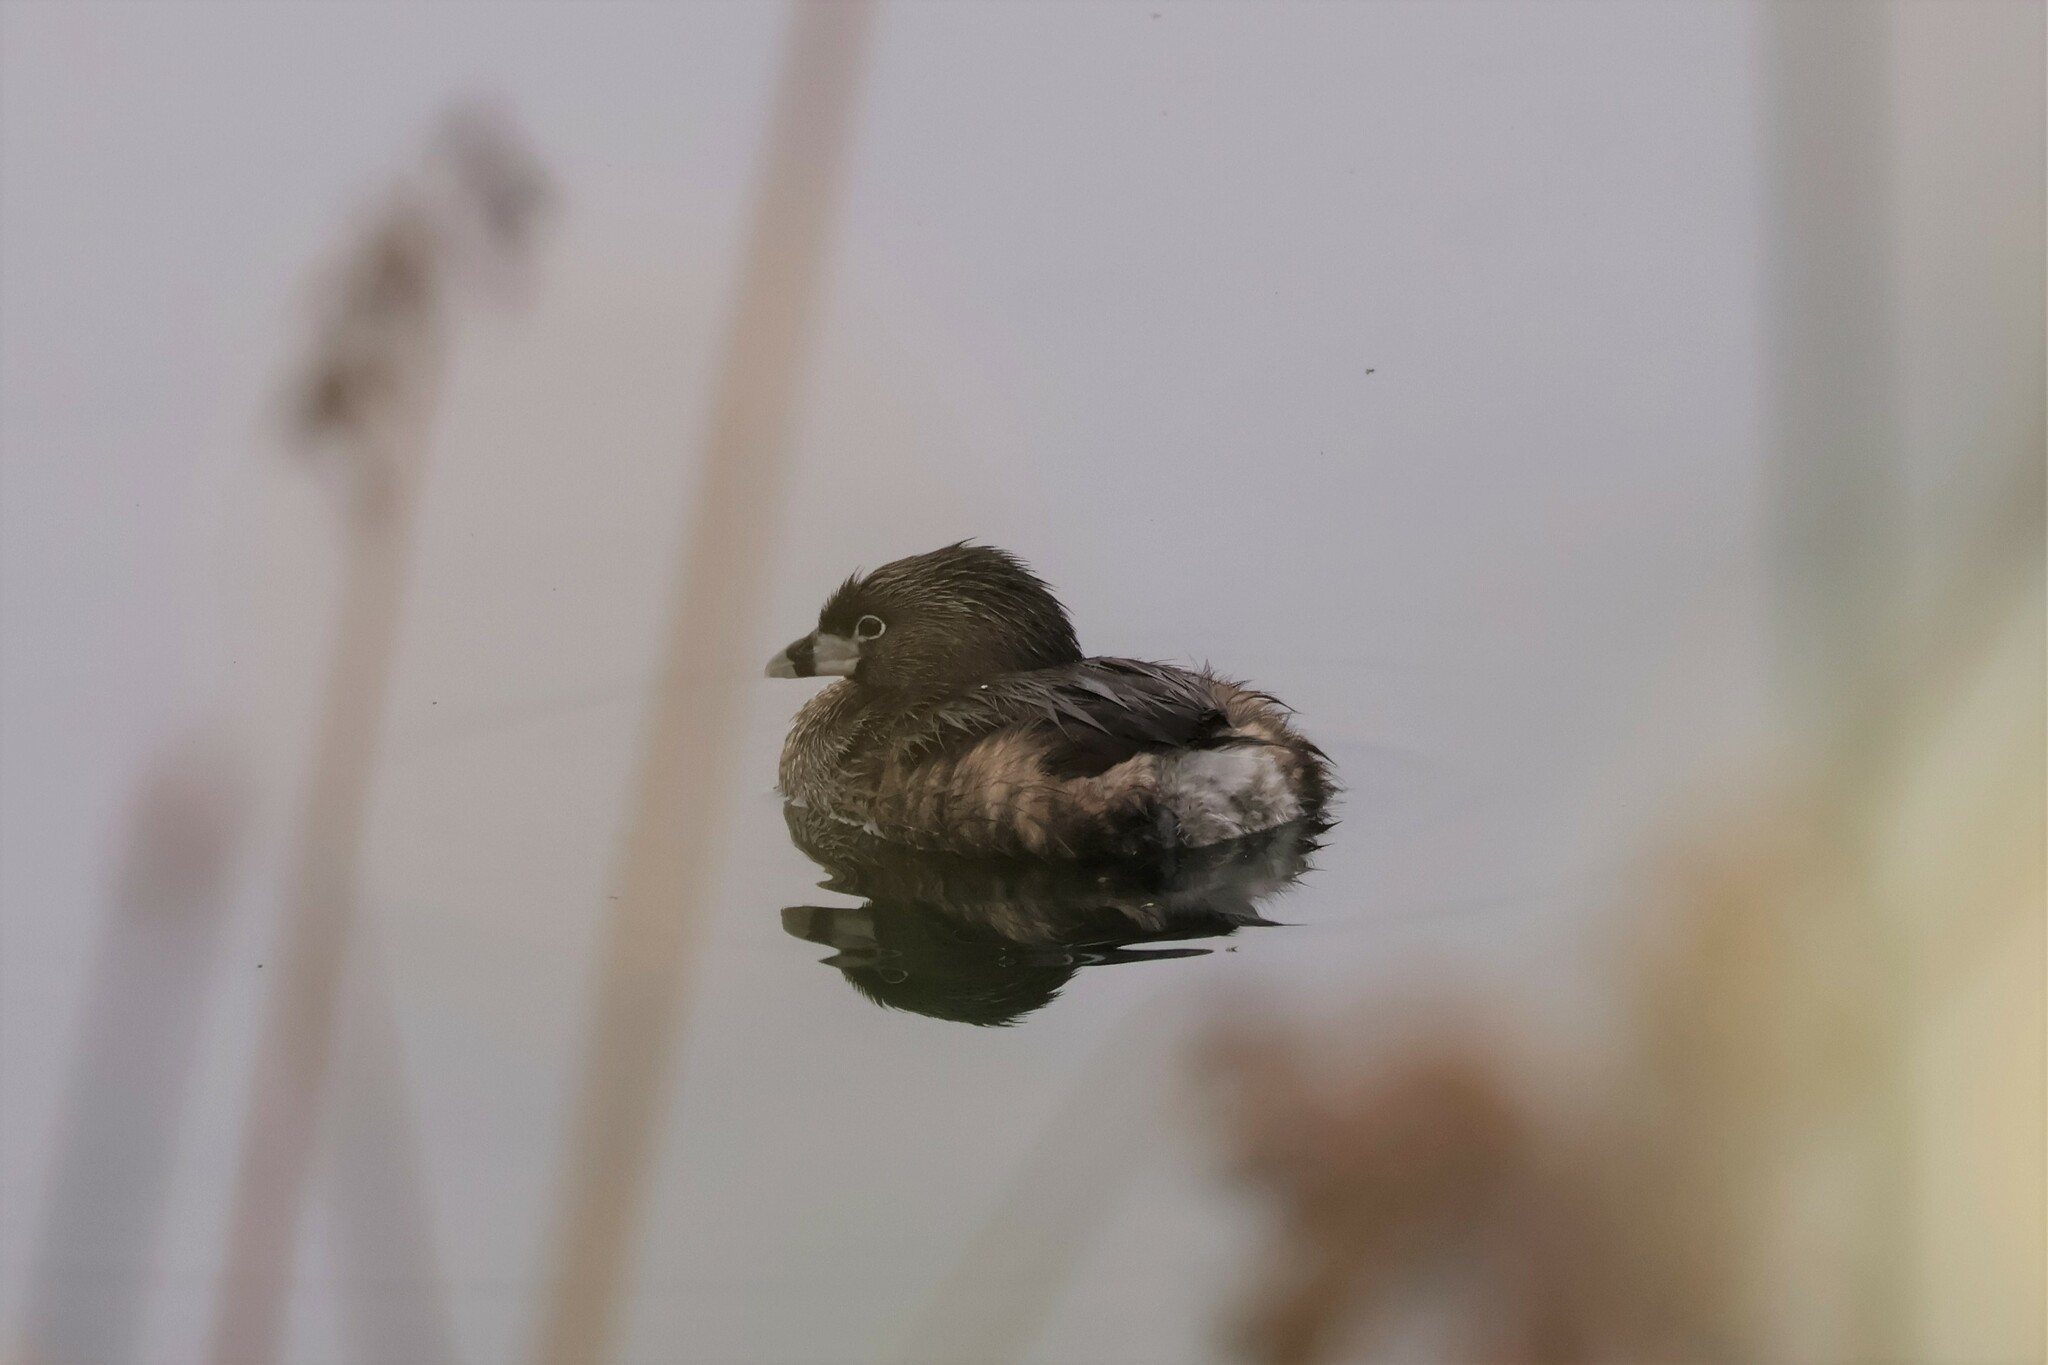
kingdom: Animalia
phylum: Chordata
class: Aves
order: Podicipediformes
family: Podicipedidae
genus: Podilymbus
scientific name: Podilymbus podiceps
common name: Pied-billed grebe
